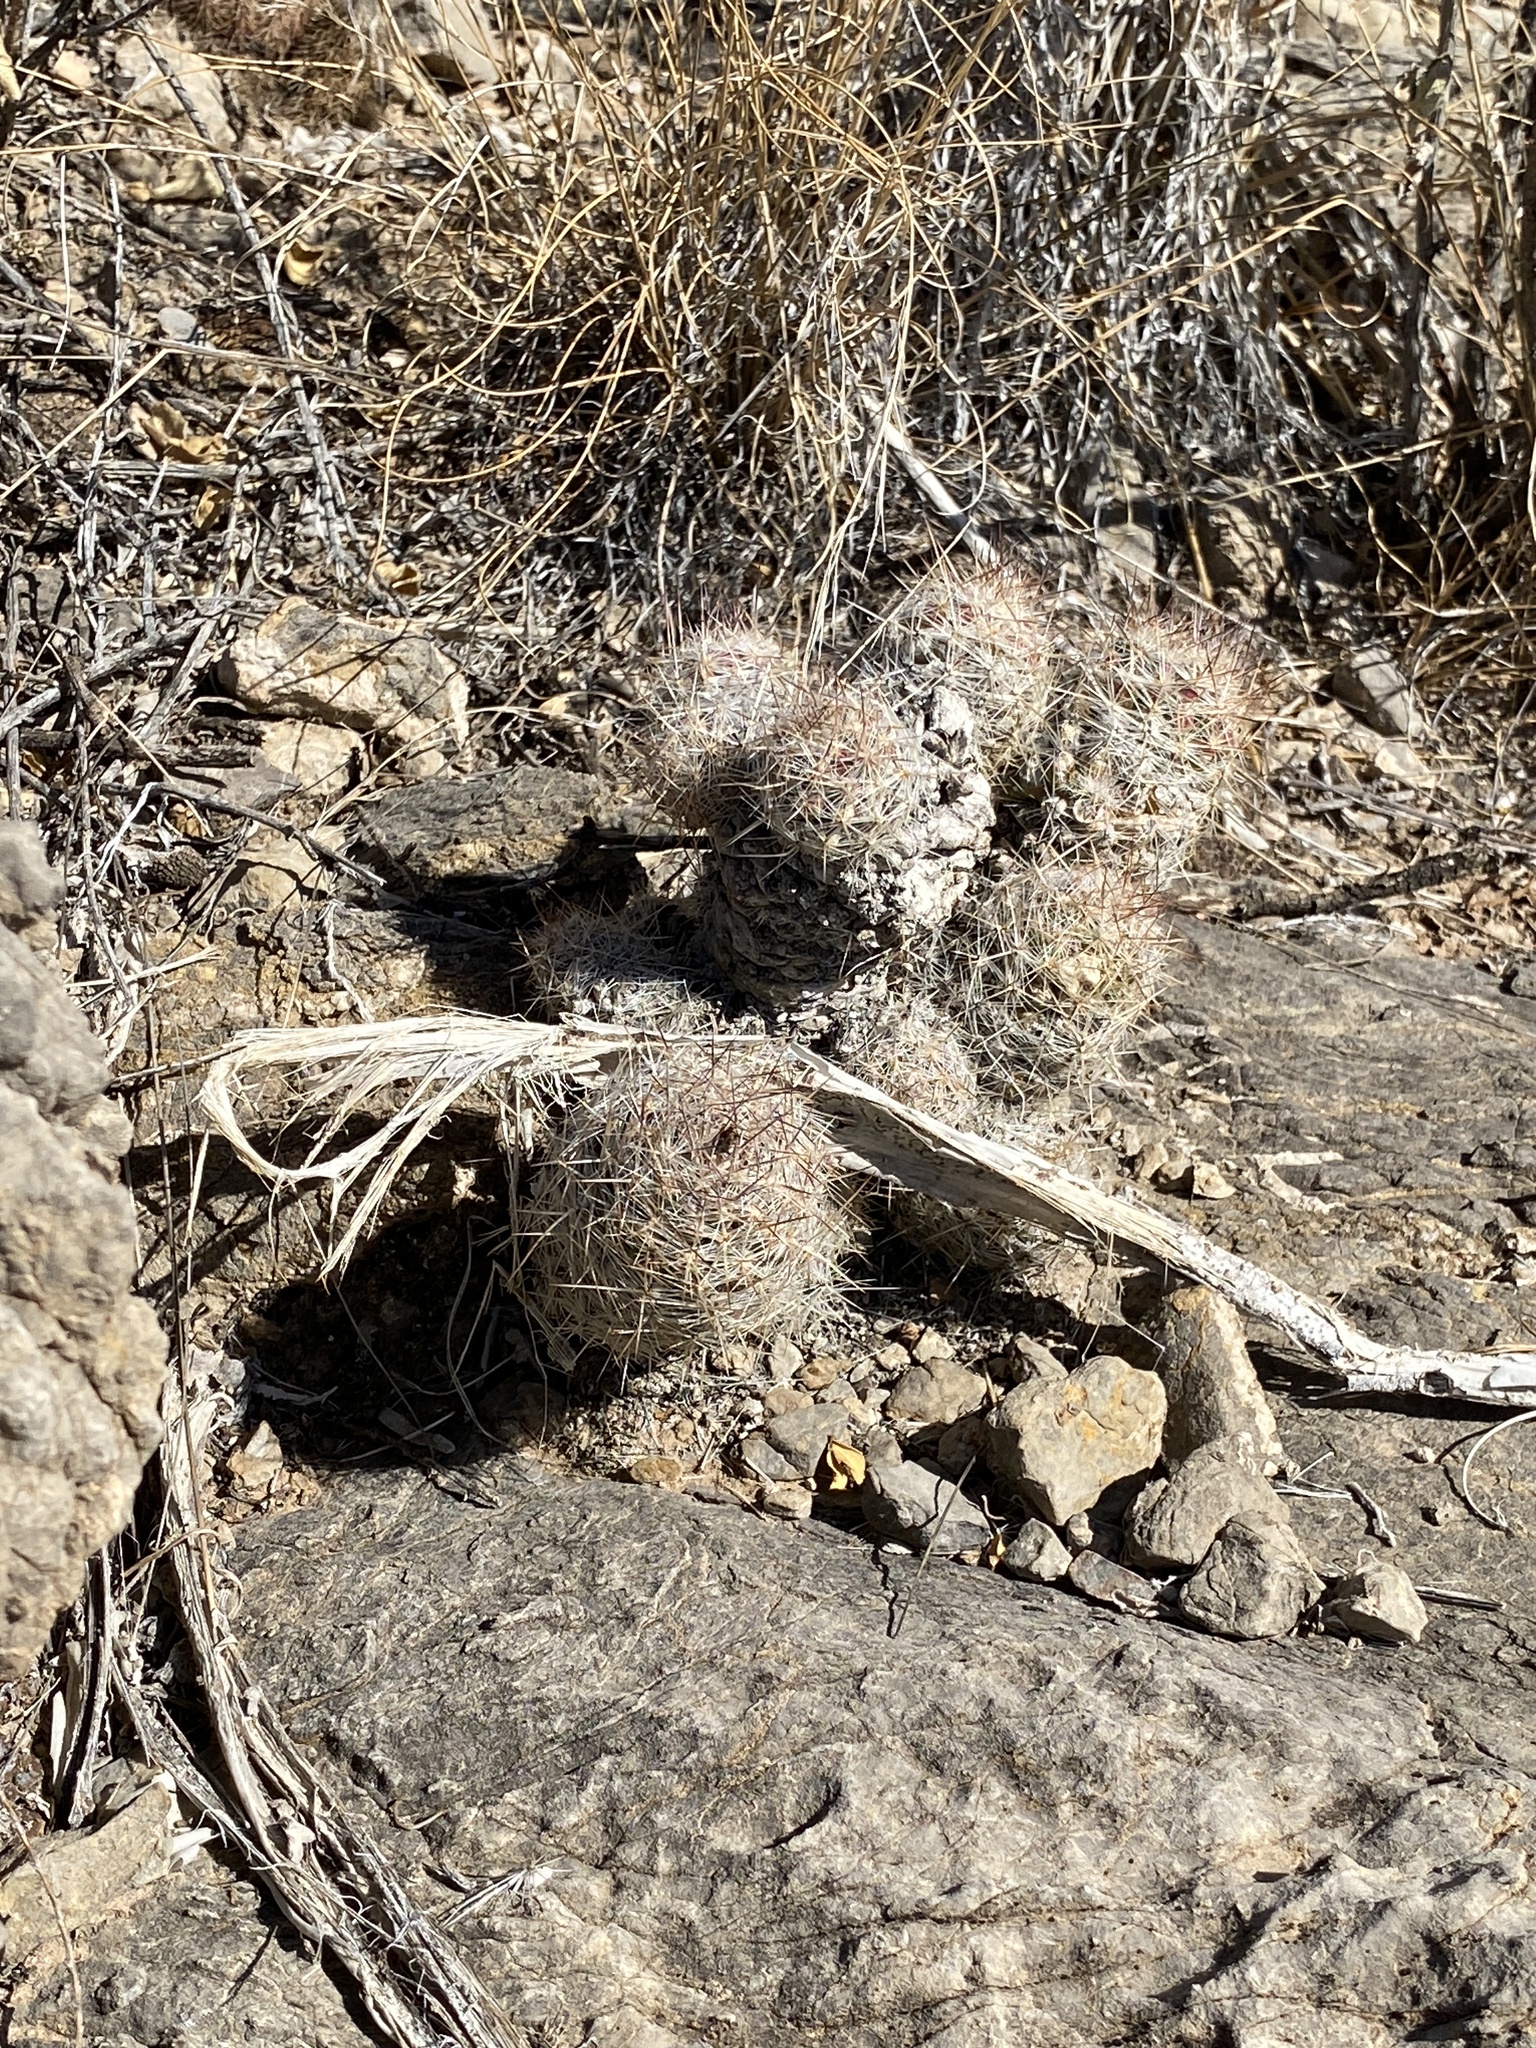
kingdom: Plantae
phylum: Tracheophyta
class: Magnoliopsida
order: Caryophyllales
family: Cactaceae
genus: Pelecyphora
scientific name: Pelecyphora tuberculosa
